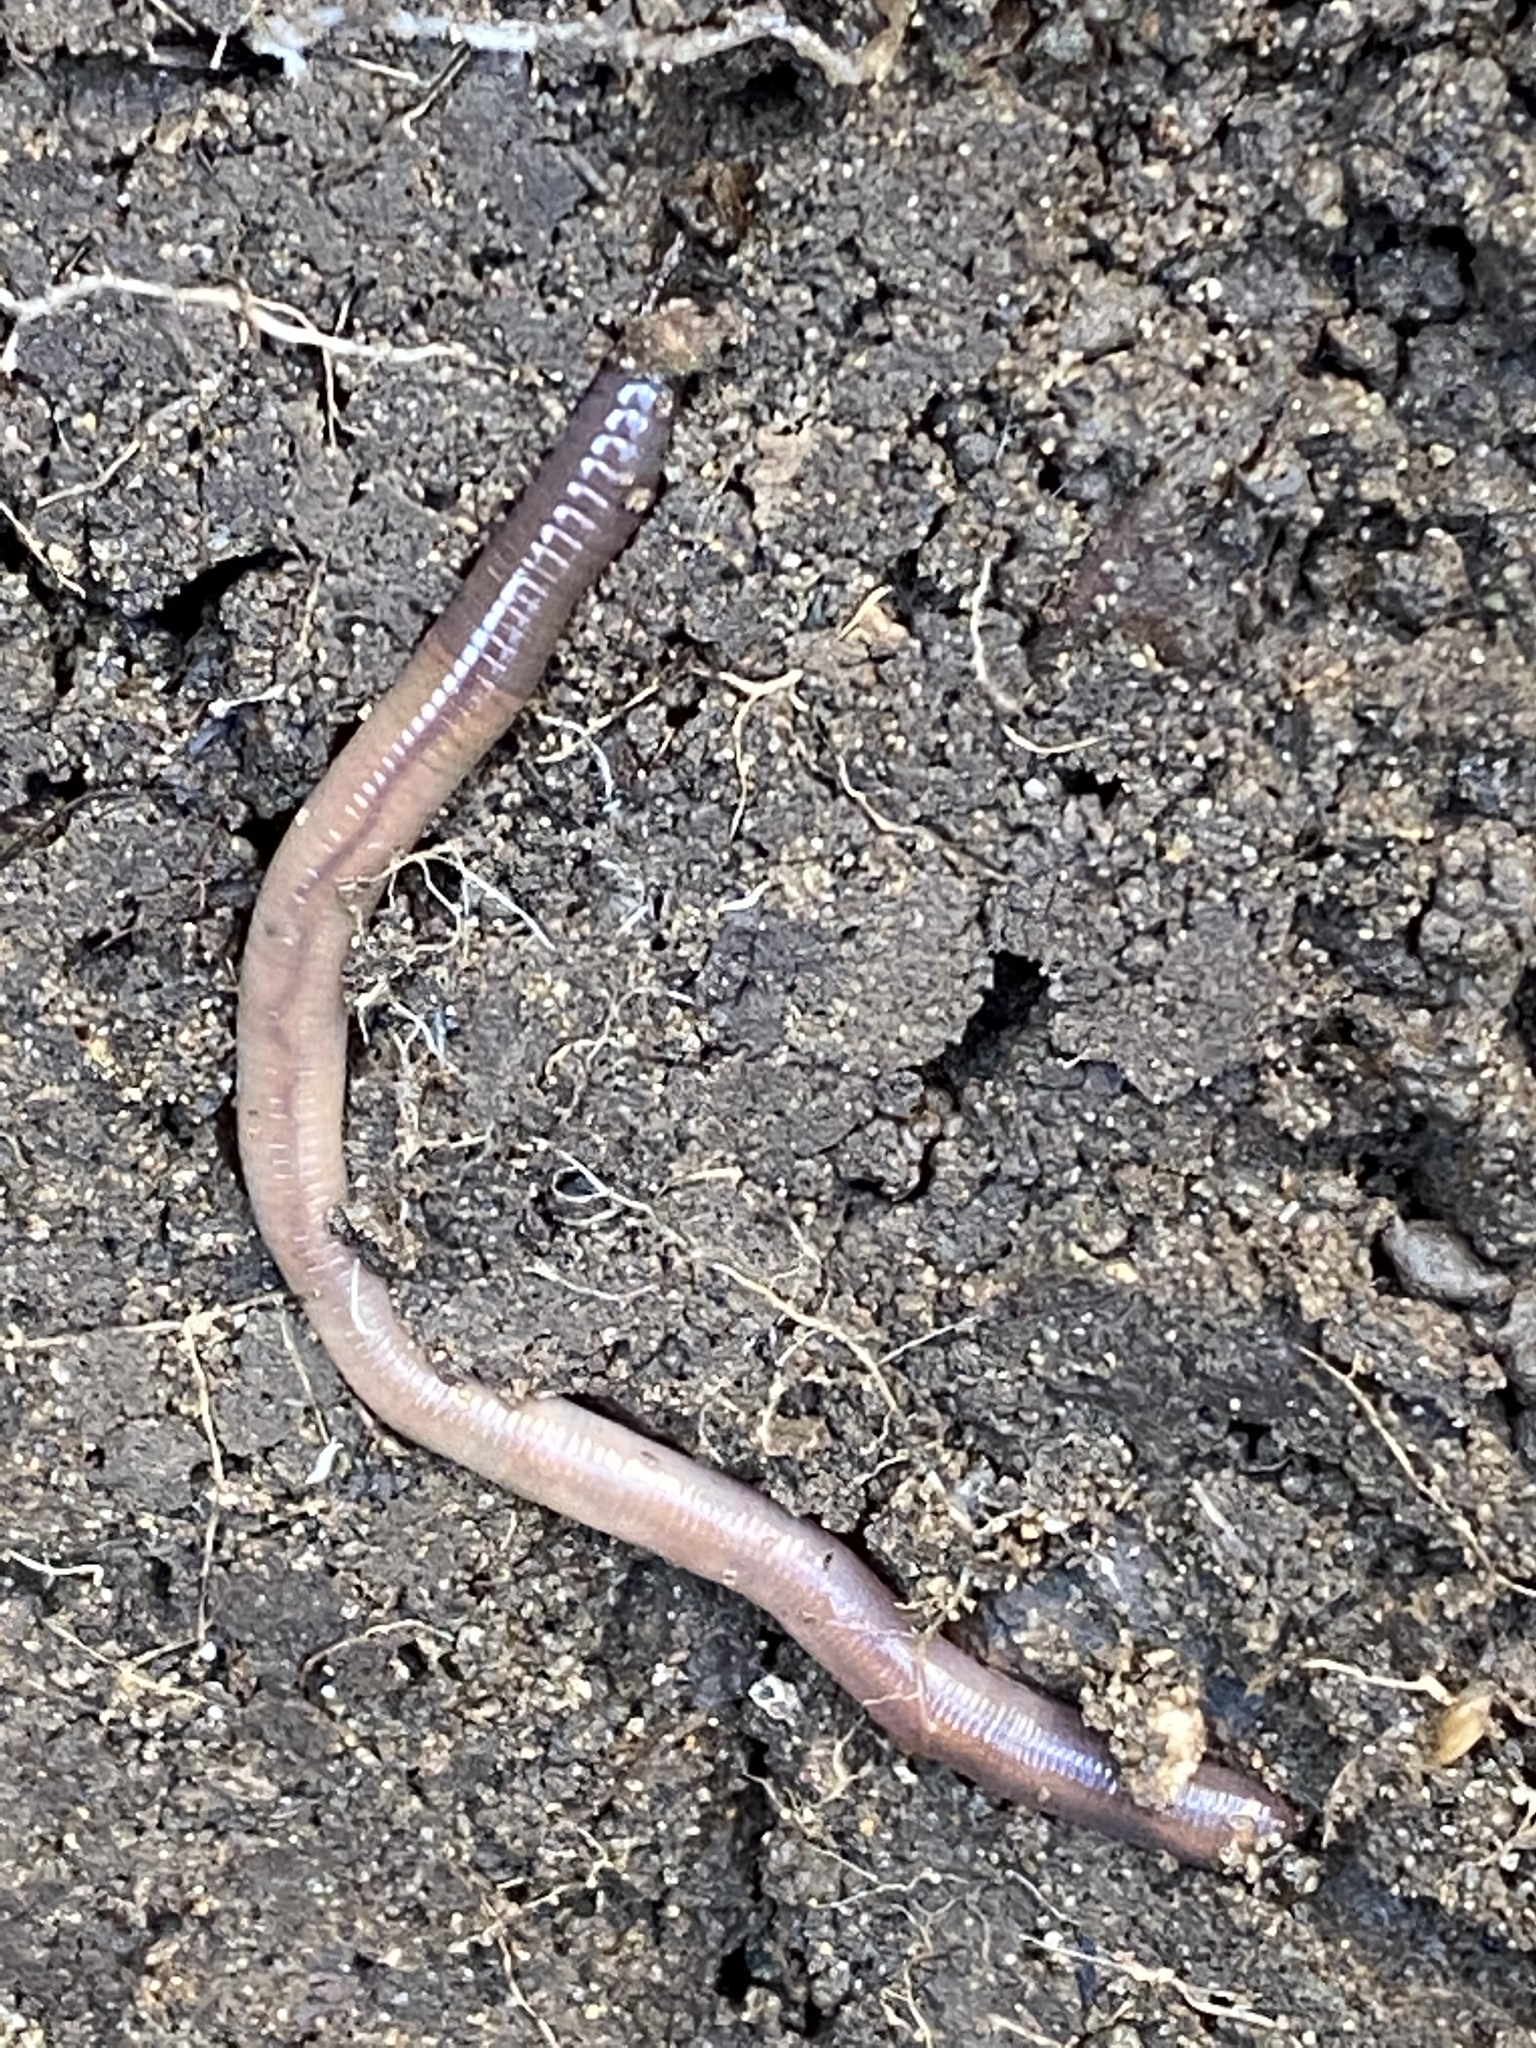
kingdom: Animalia
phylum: Annelida
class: Clitellata
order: Crassiclitellata
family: Lumbricidae
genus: Lumbricus
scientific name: Lumbricus terrestris
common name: Common earthworm
